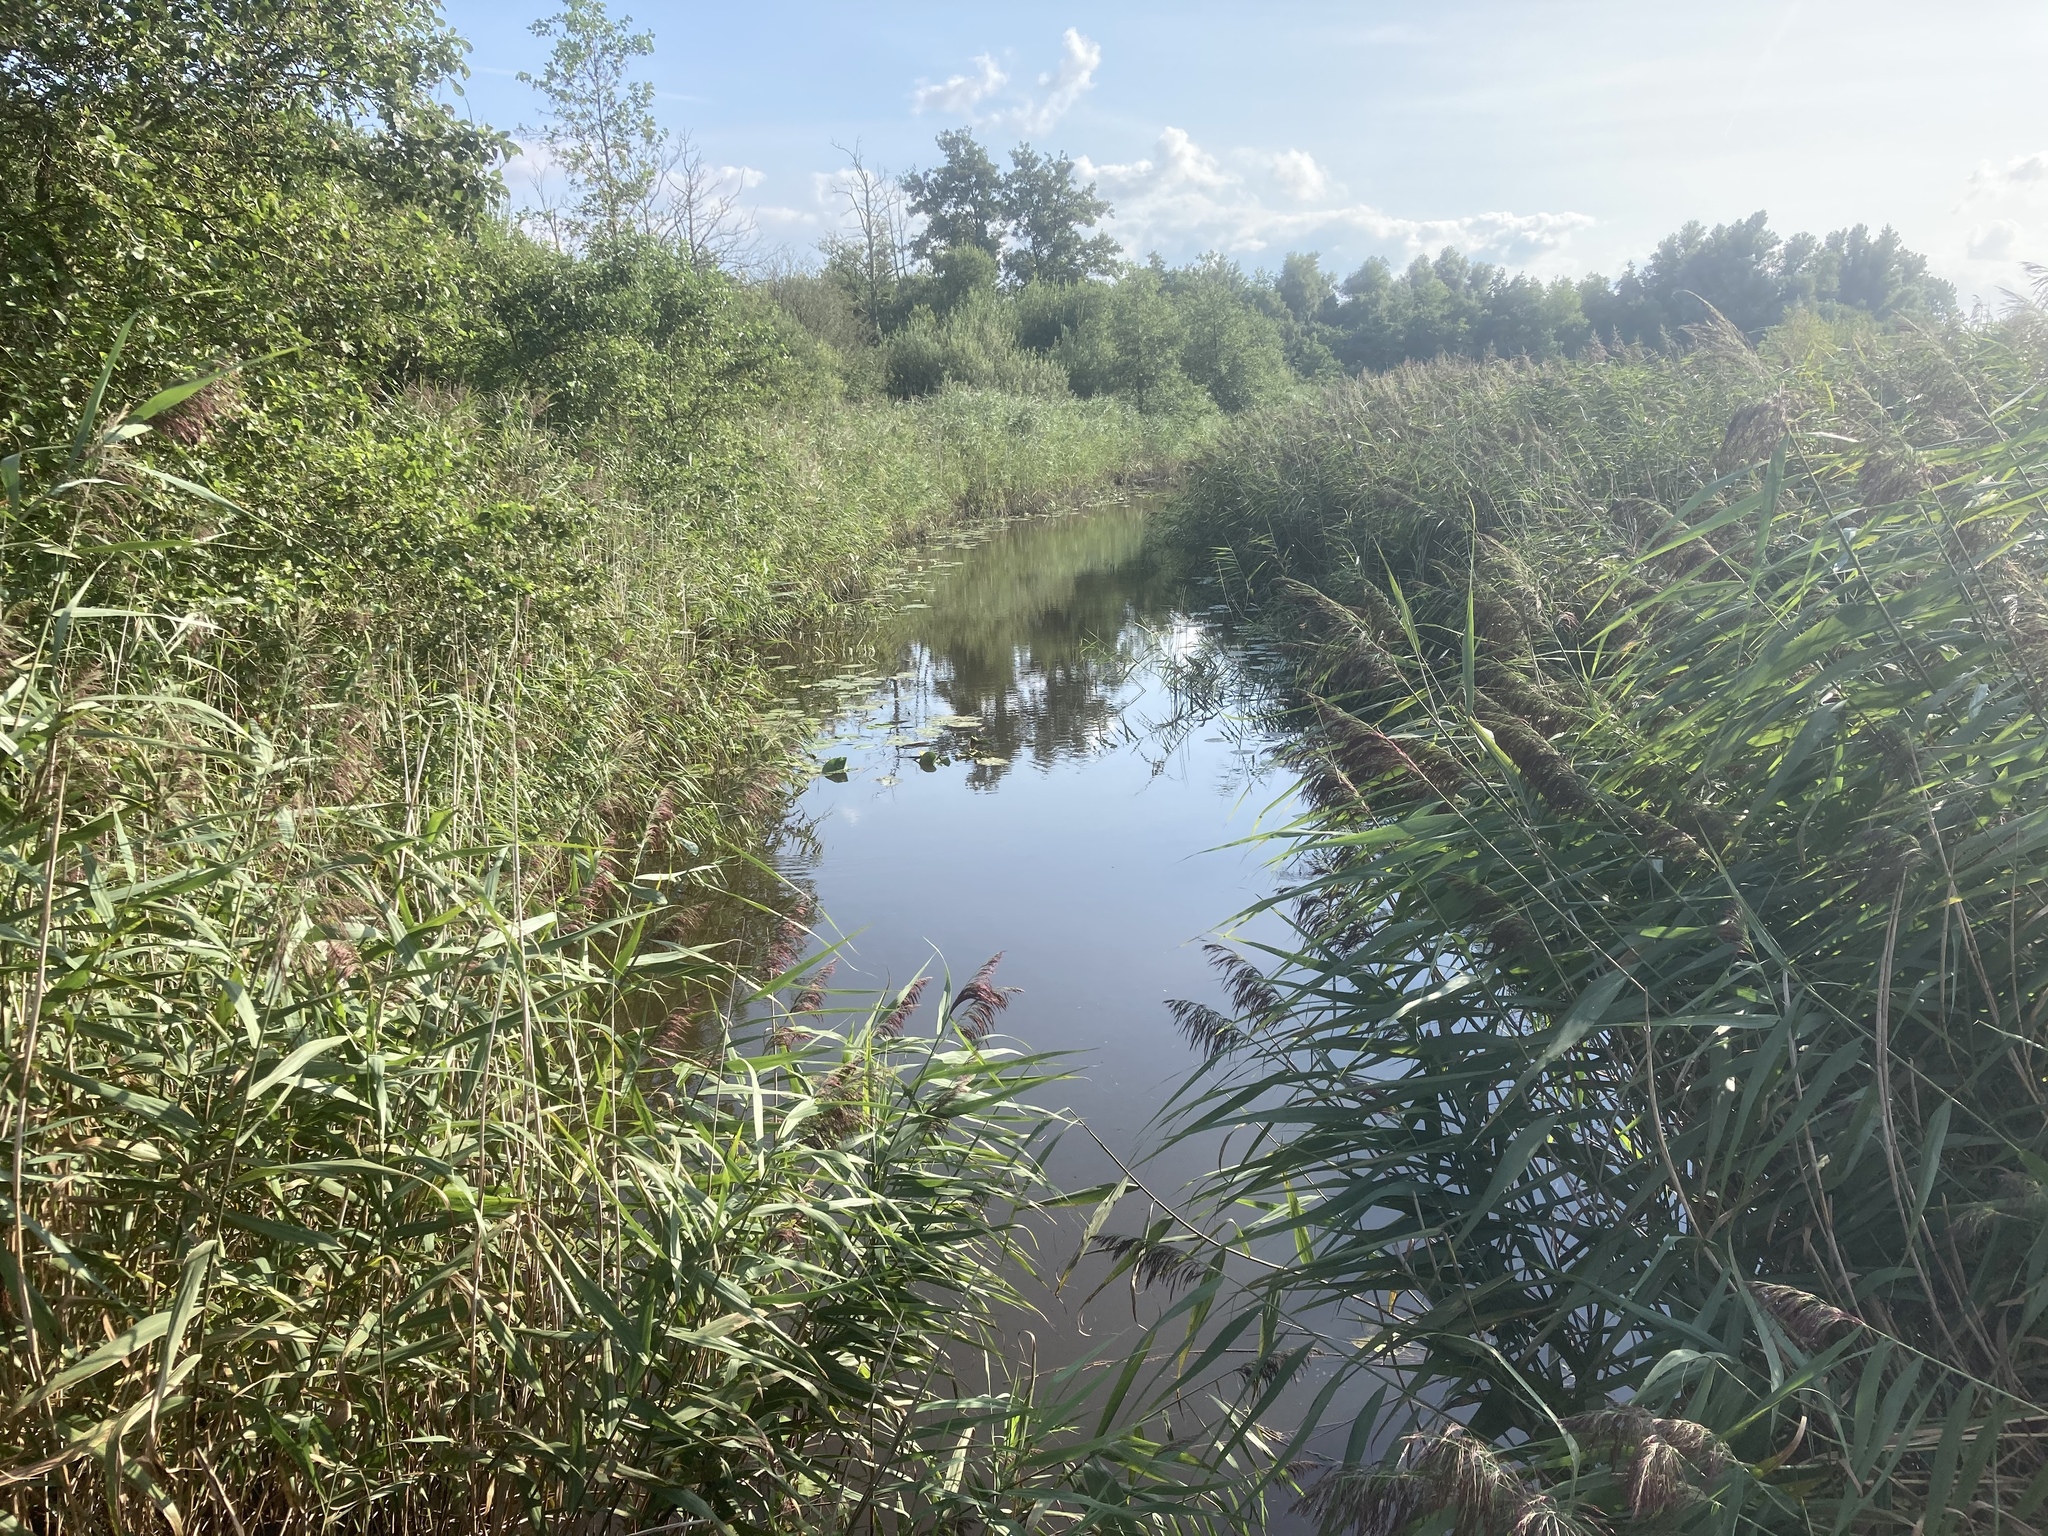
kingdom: Plantae
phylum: Tracheophyta
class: Liliopsida
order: Poales
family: Poaceae
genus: Phragmites
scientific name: Phragmites australis
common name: Common reed
